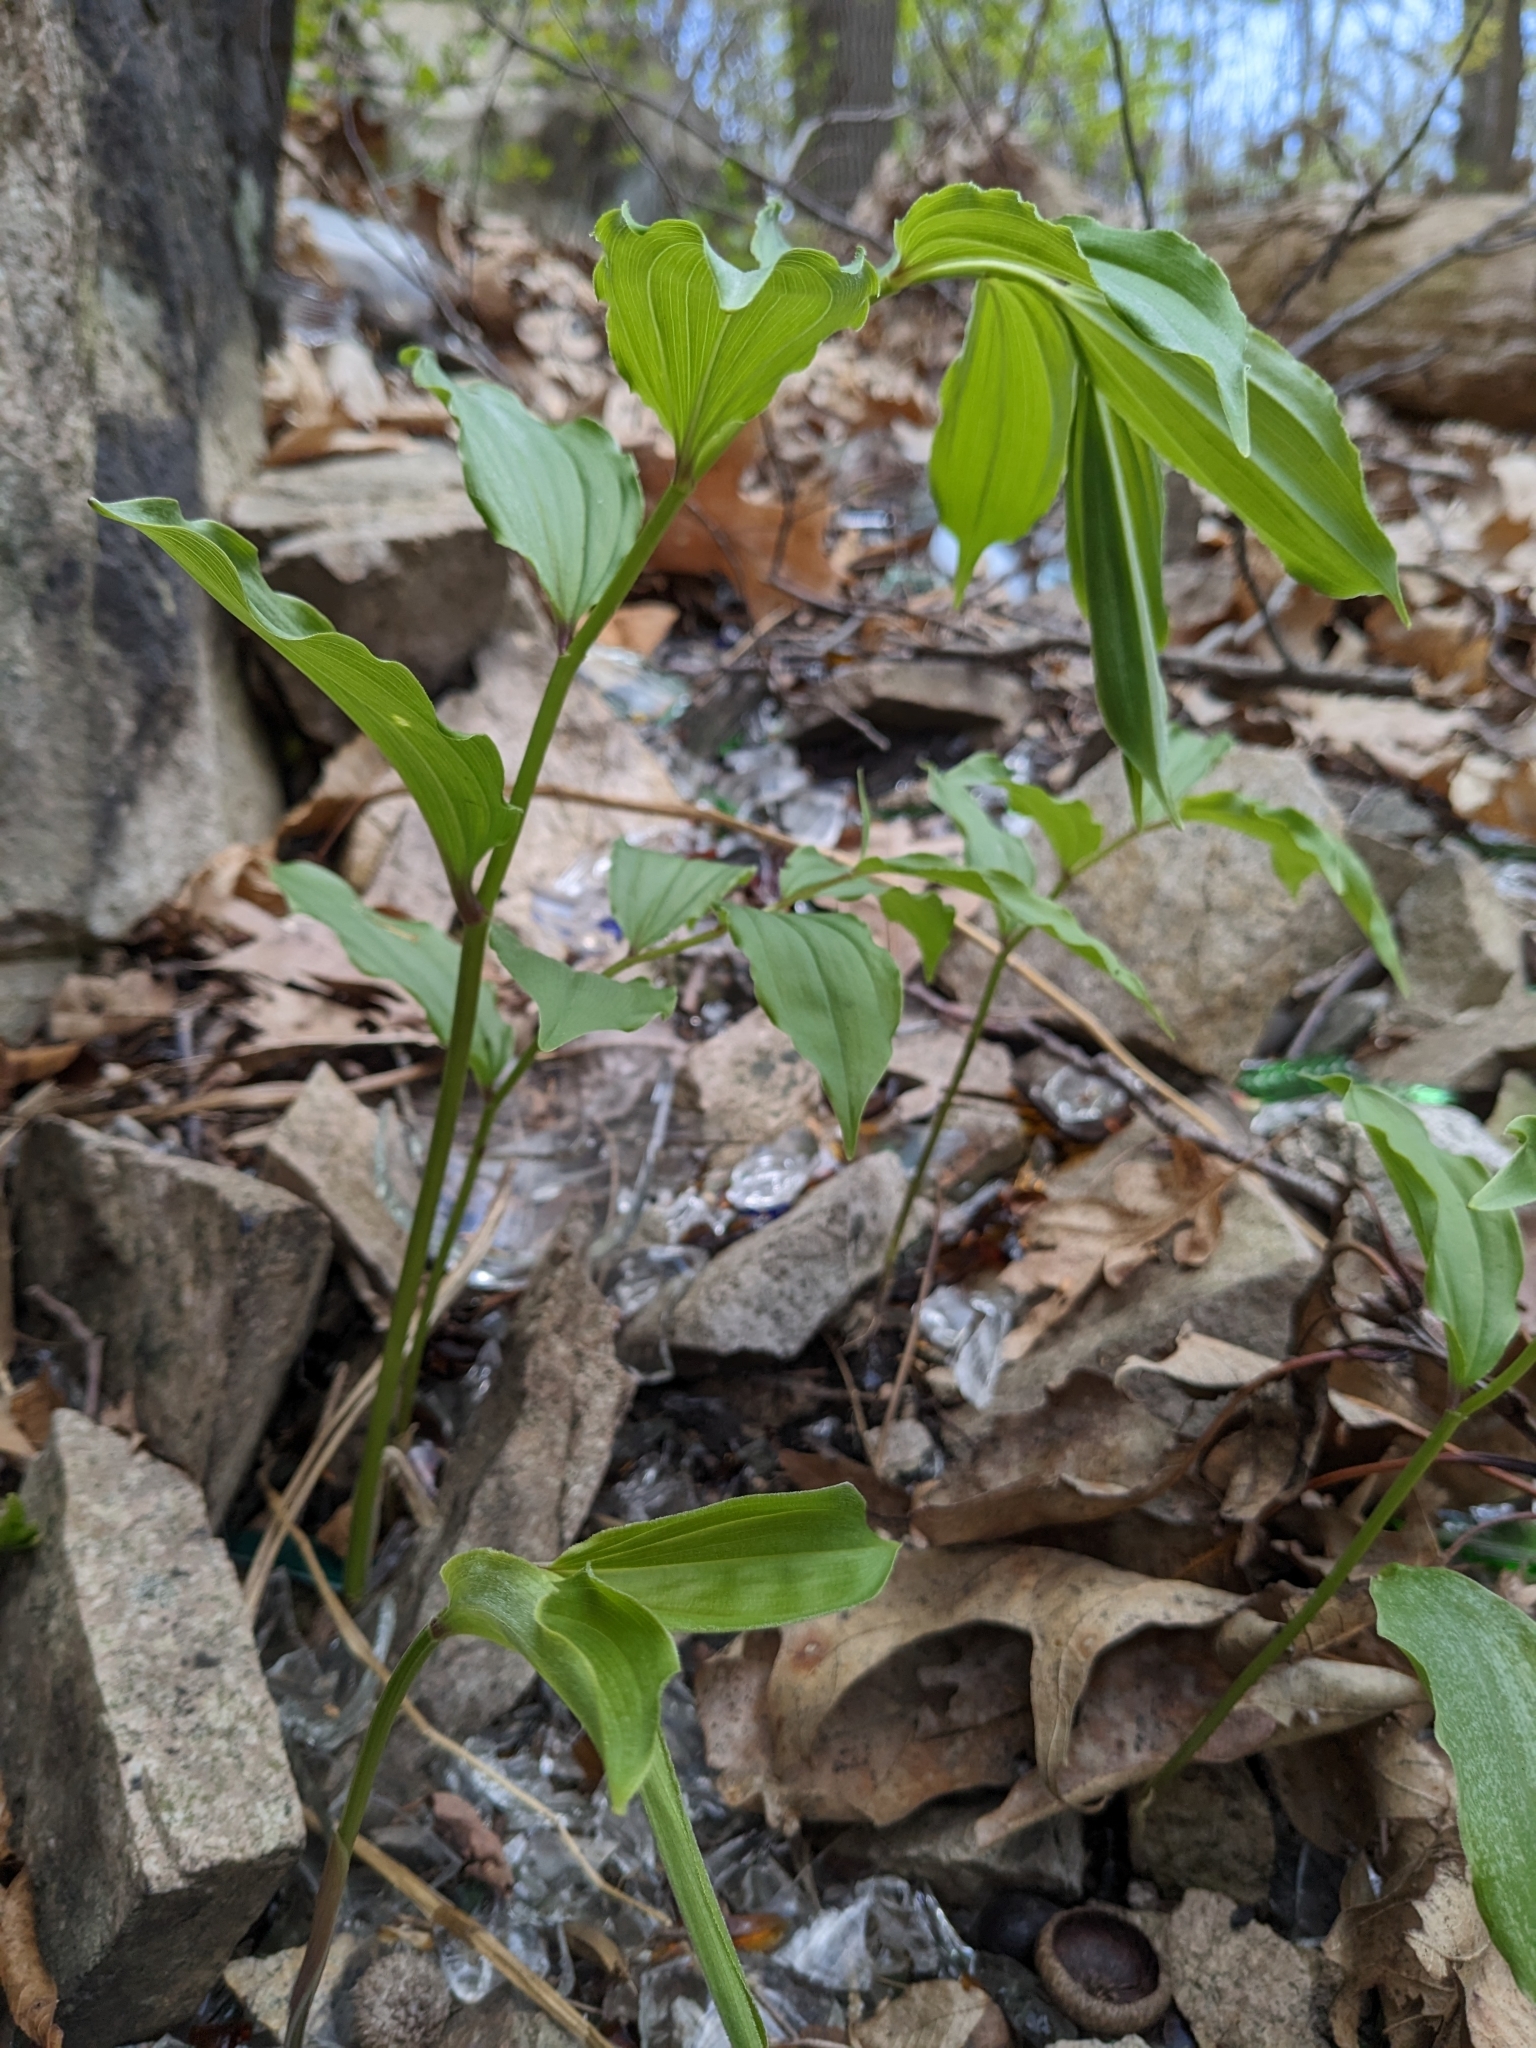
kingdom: Plantae
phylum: Tracheophyta
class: Liliopsida
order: Asparagales
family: Asparagaceae
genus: Maianthemum
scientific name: Maianthemum racemosum
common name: False spikenard
